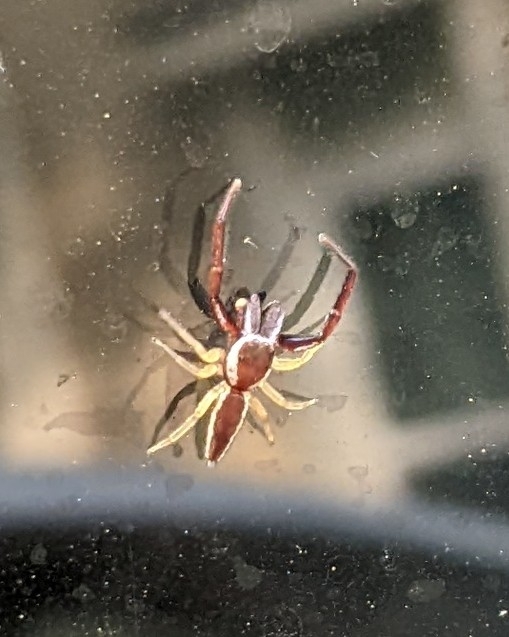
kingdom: Animalia
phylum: Arthropoda
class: Arachnida
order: Araneae
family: Salticidae
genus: Hentzia
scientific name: Hentzia palmarum
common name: Common hentz jumping spider
